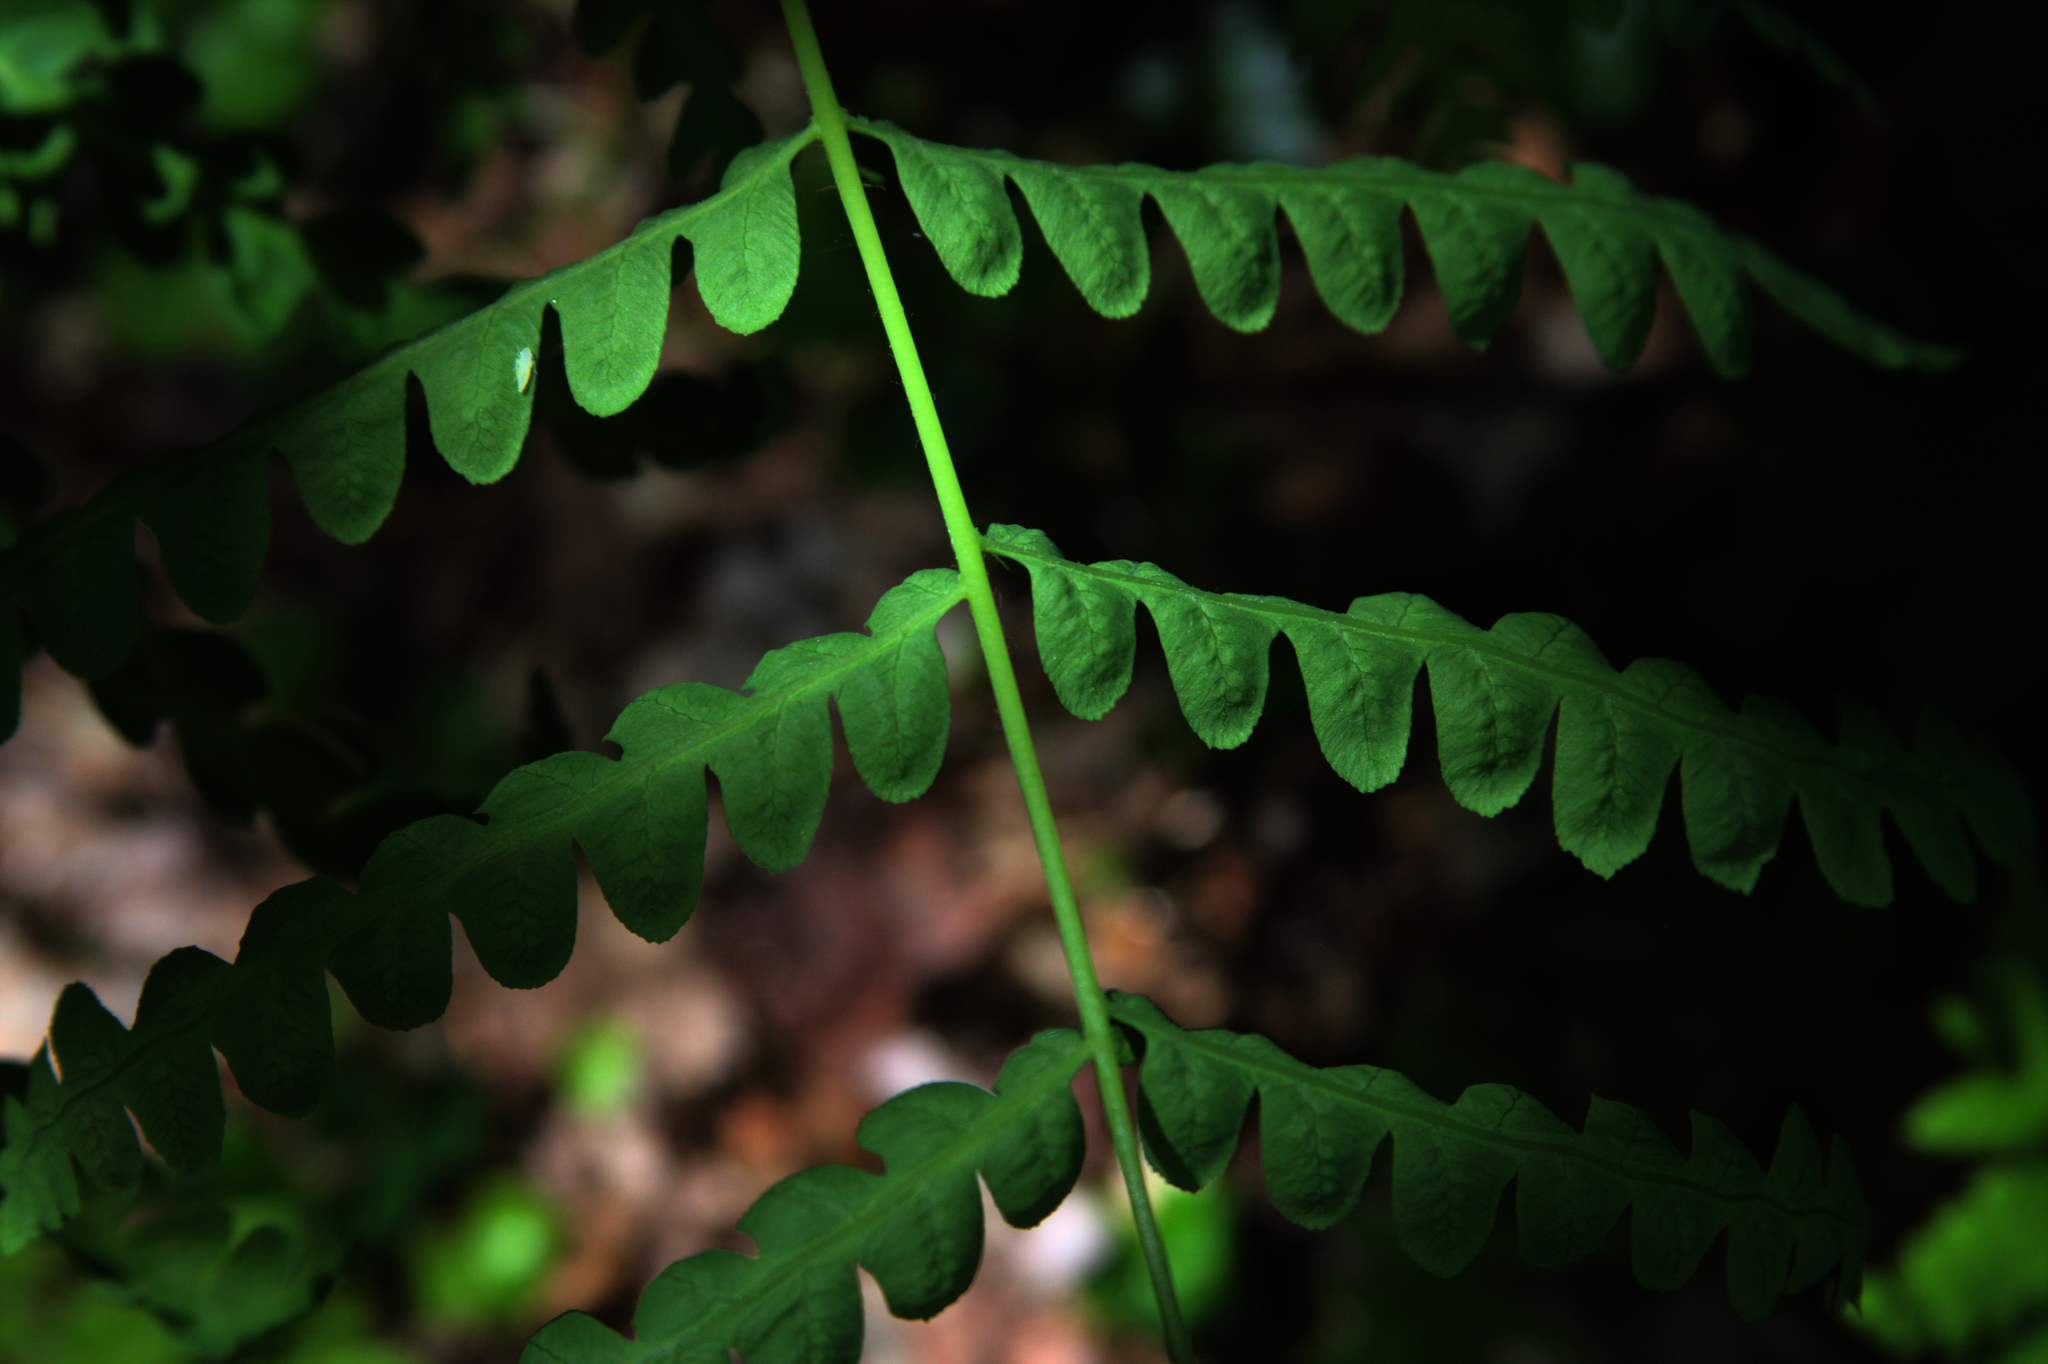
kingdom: Plantae
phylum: Tracheophyta
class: Polypodiopsida
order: Osmundales
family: Osmundaceae
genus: Claytosmunda
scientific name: Claytosmunda claytoniana
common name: Clayton's fern
